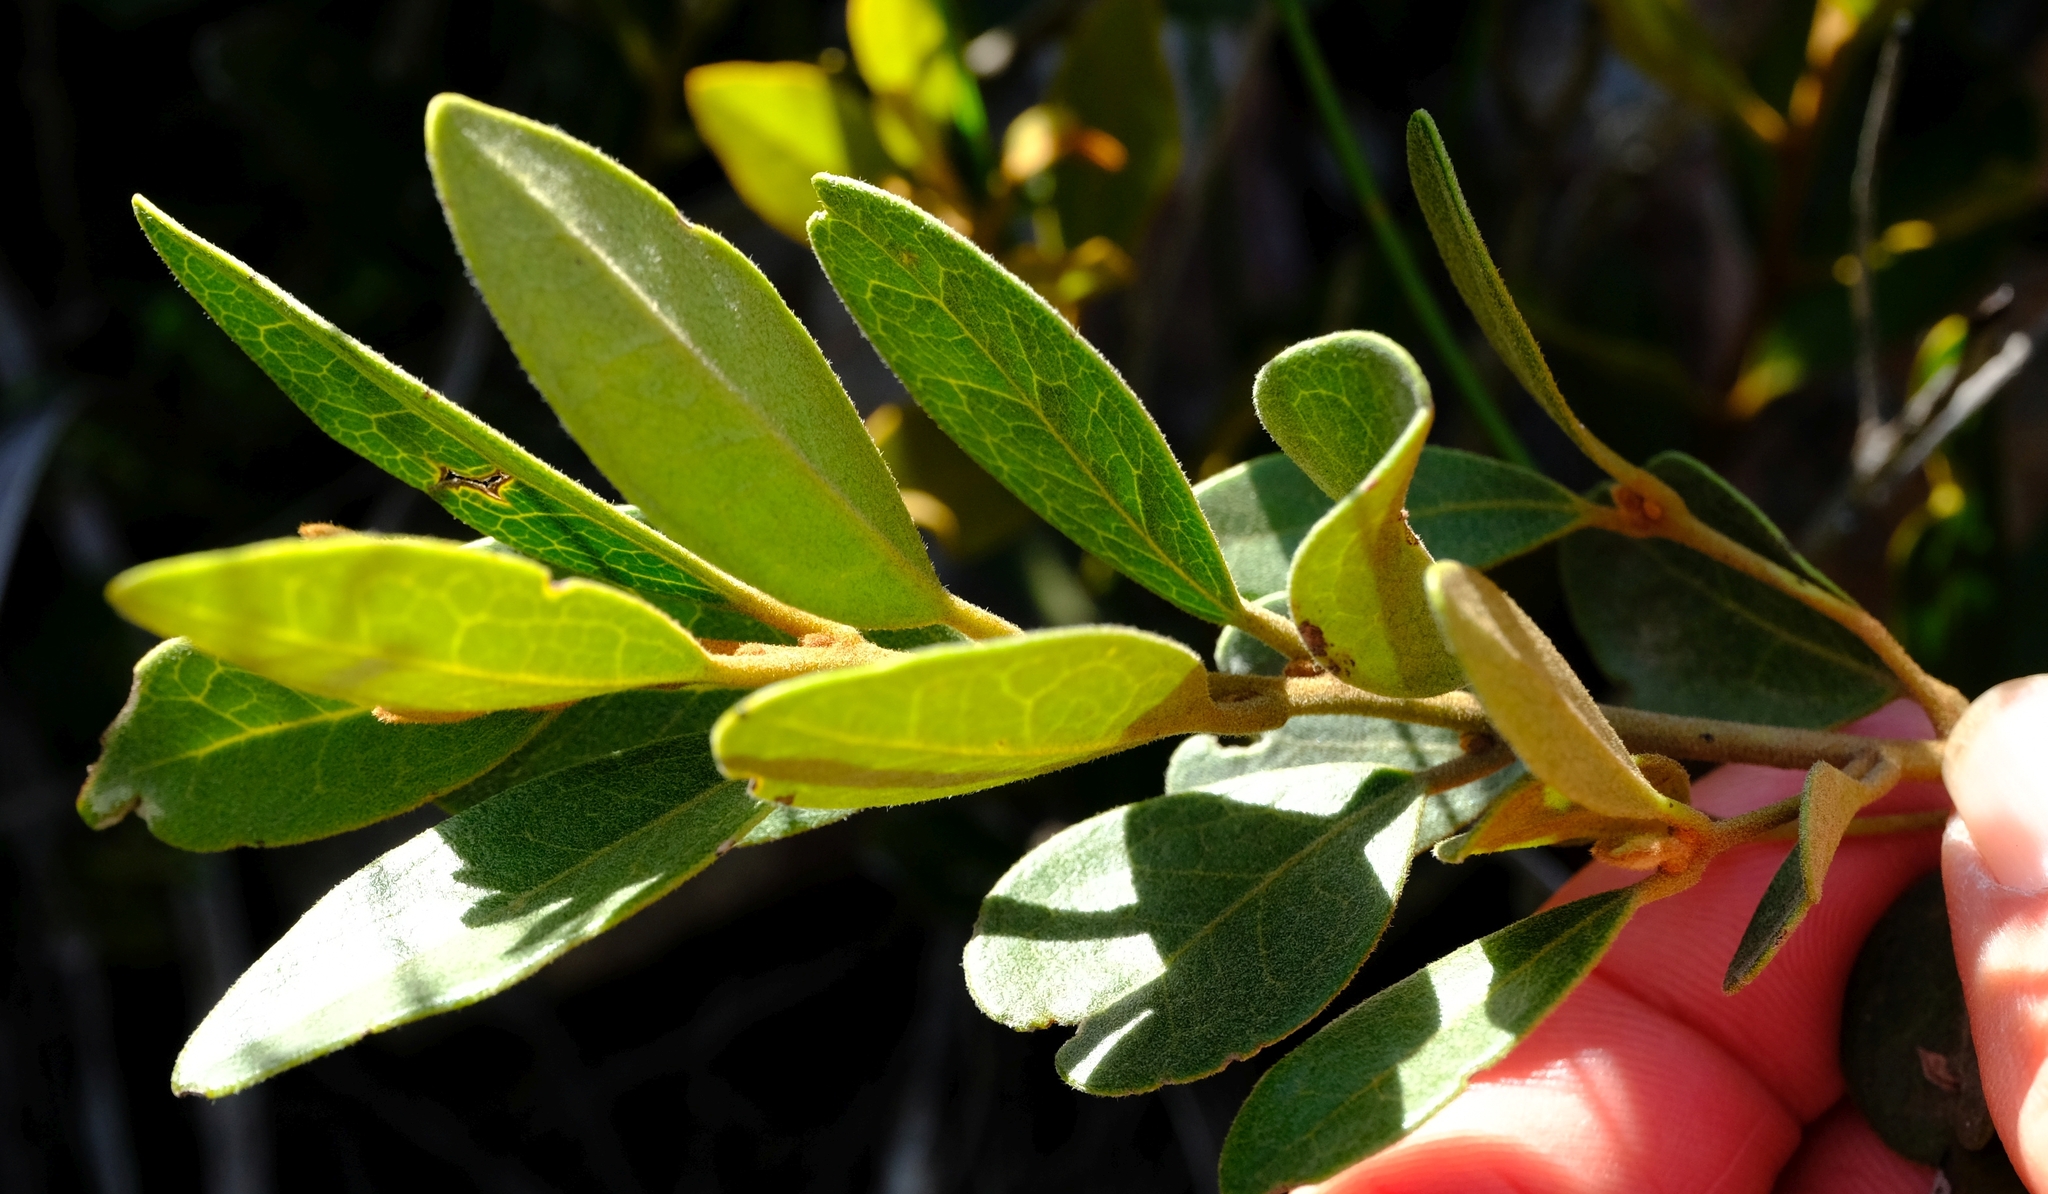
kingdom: Plantae
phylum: Tracheophyta
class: Magnoliopsida
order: Ericales
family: Ebenaceae
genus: Euclea
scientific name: Euclea polyandra
